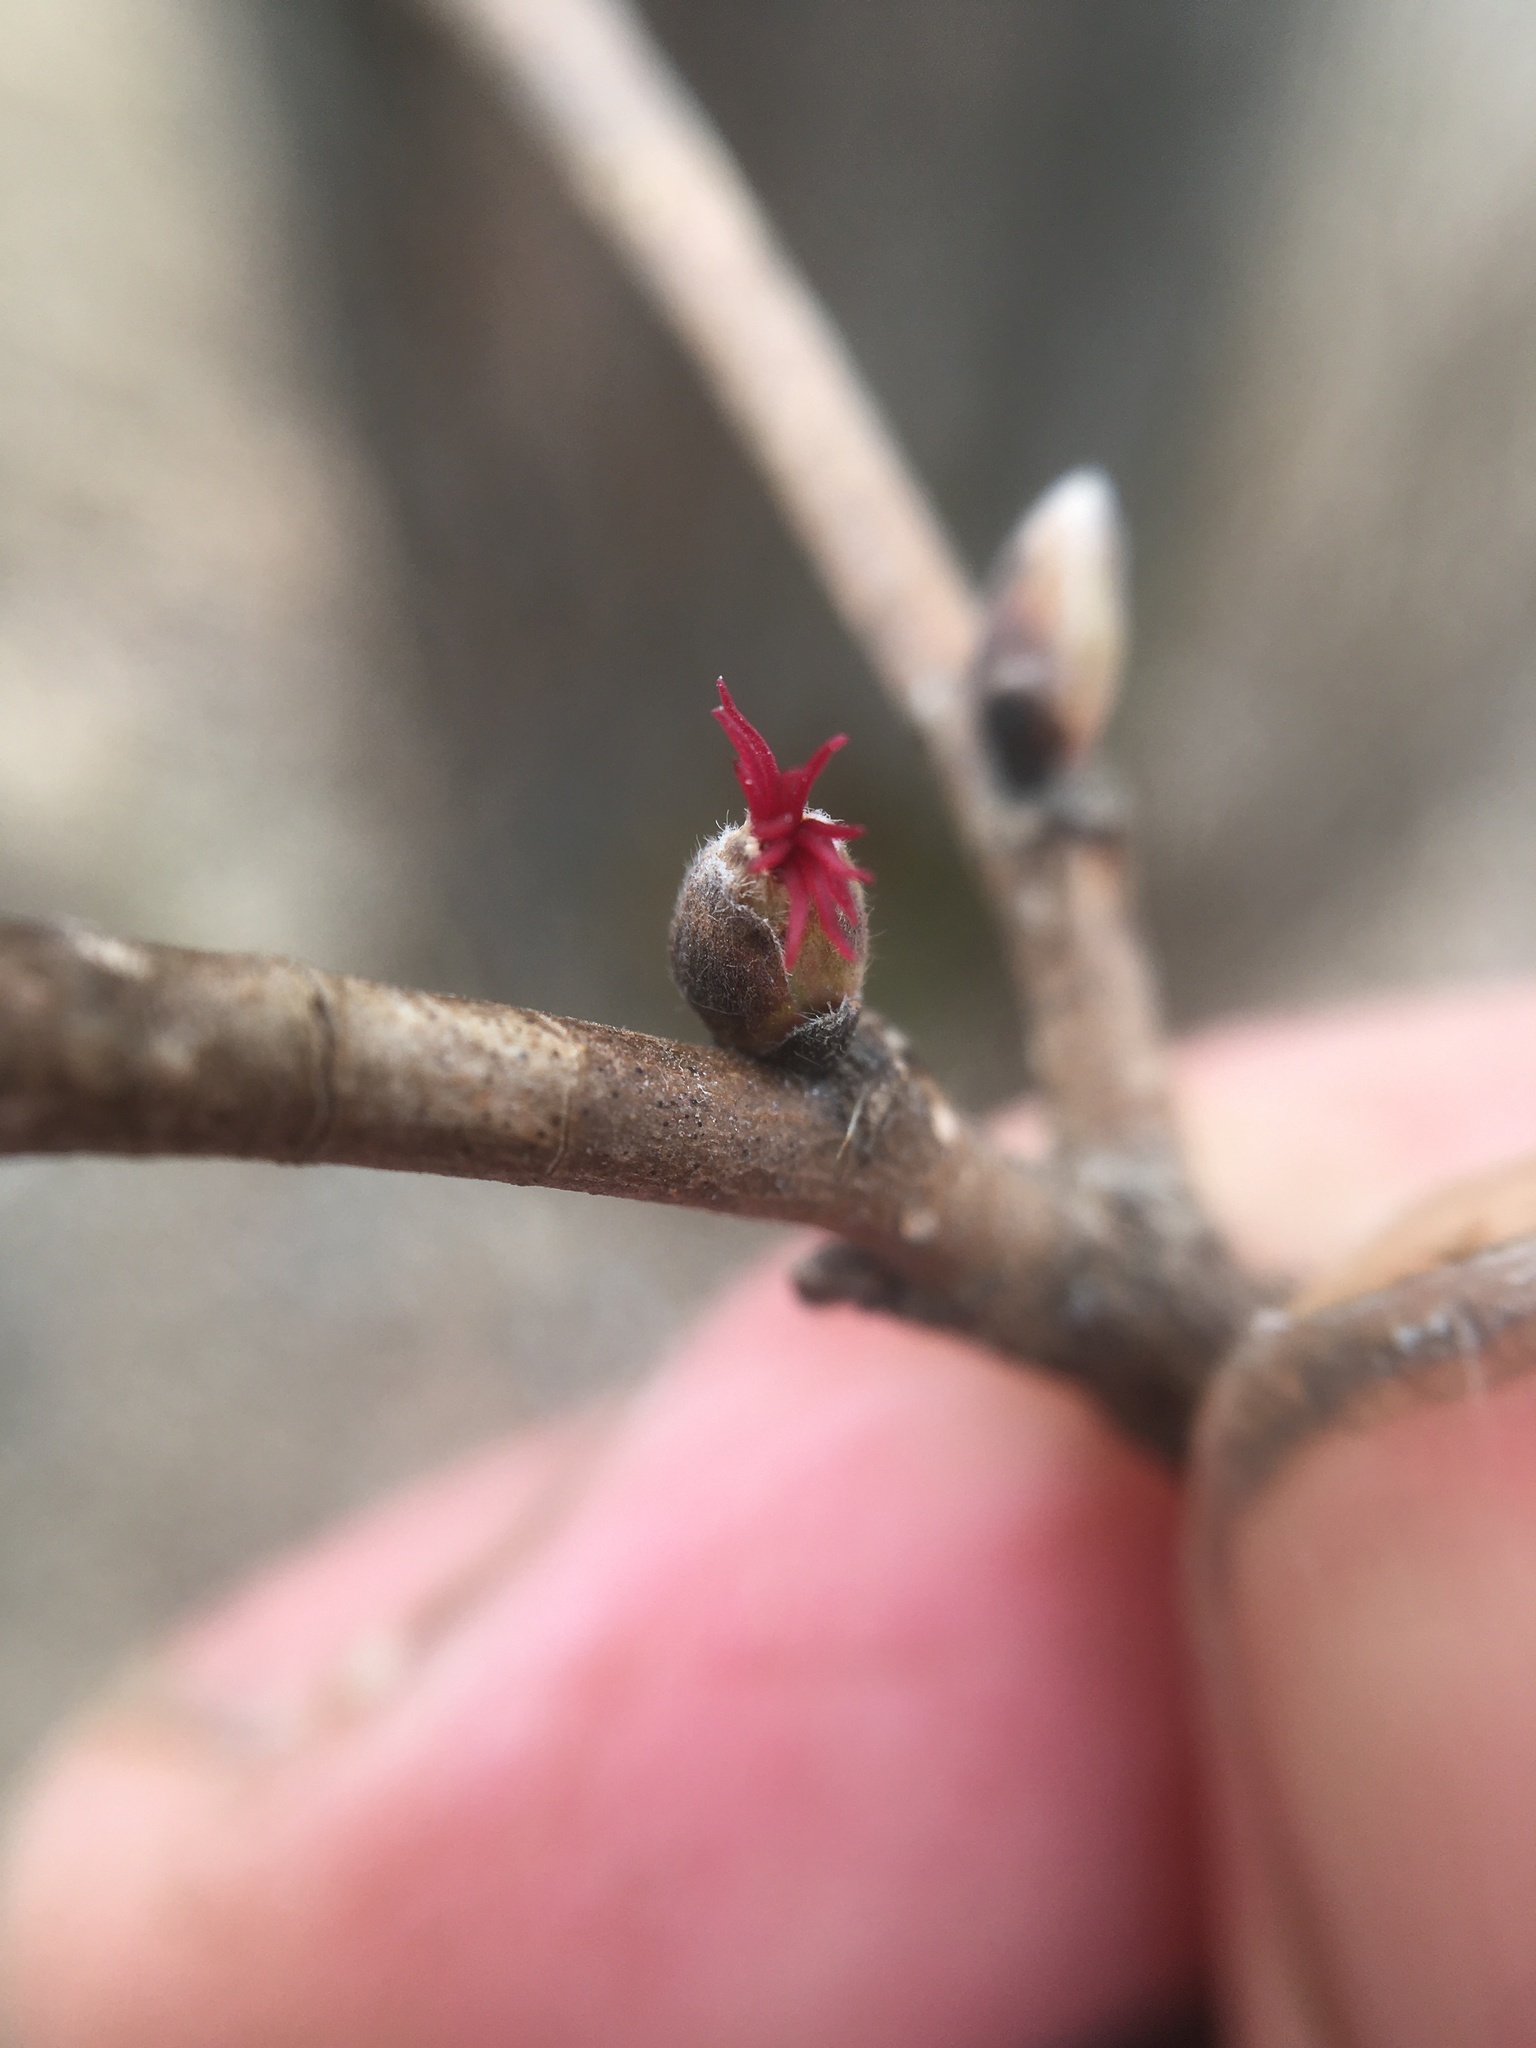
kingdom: Plantae
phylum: Tracheophyta
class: Magnoliopsida
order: Fagales
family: Betulaceae
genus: Corylus
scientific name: Corylus cornuta
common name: Beaked hazel
